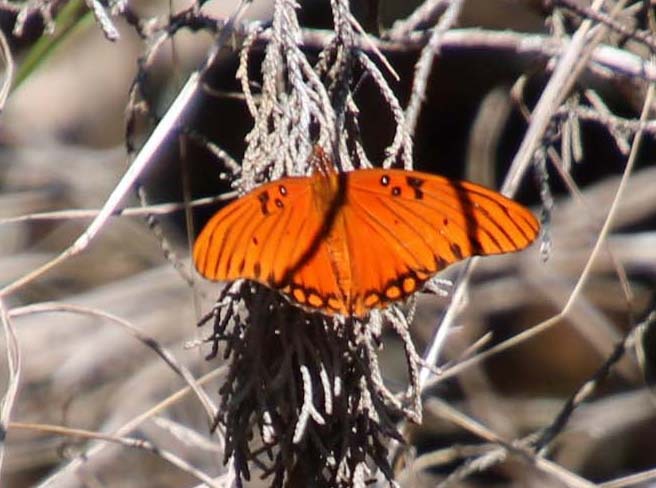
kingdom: Animalia
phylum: Arthropoda
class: Insecta
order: Lepidoptera
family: Nymphalidae
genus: Dione
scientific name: Dione vanillae
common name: Gulf fritillary
